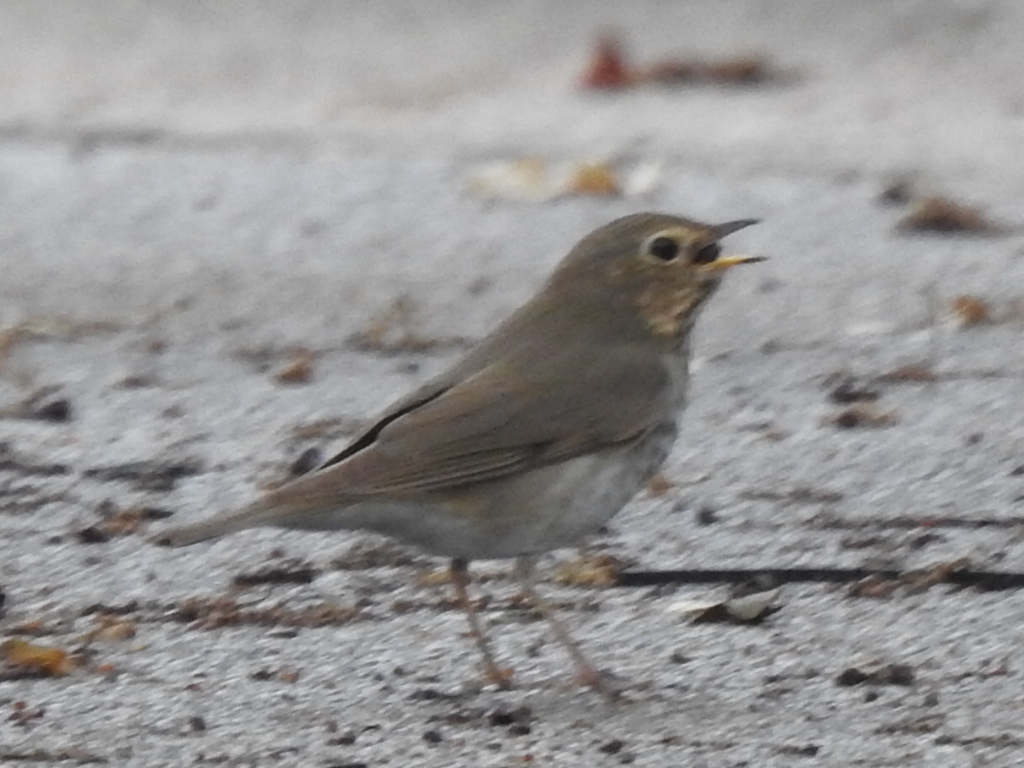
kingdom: Animalia
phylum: Chordata
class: Aves
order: Passeriformes
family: Turdidae
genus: Catharus
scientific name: Catharus ustulatus
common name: Swainson's thrush
